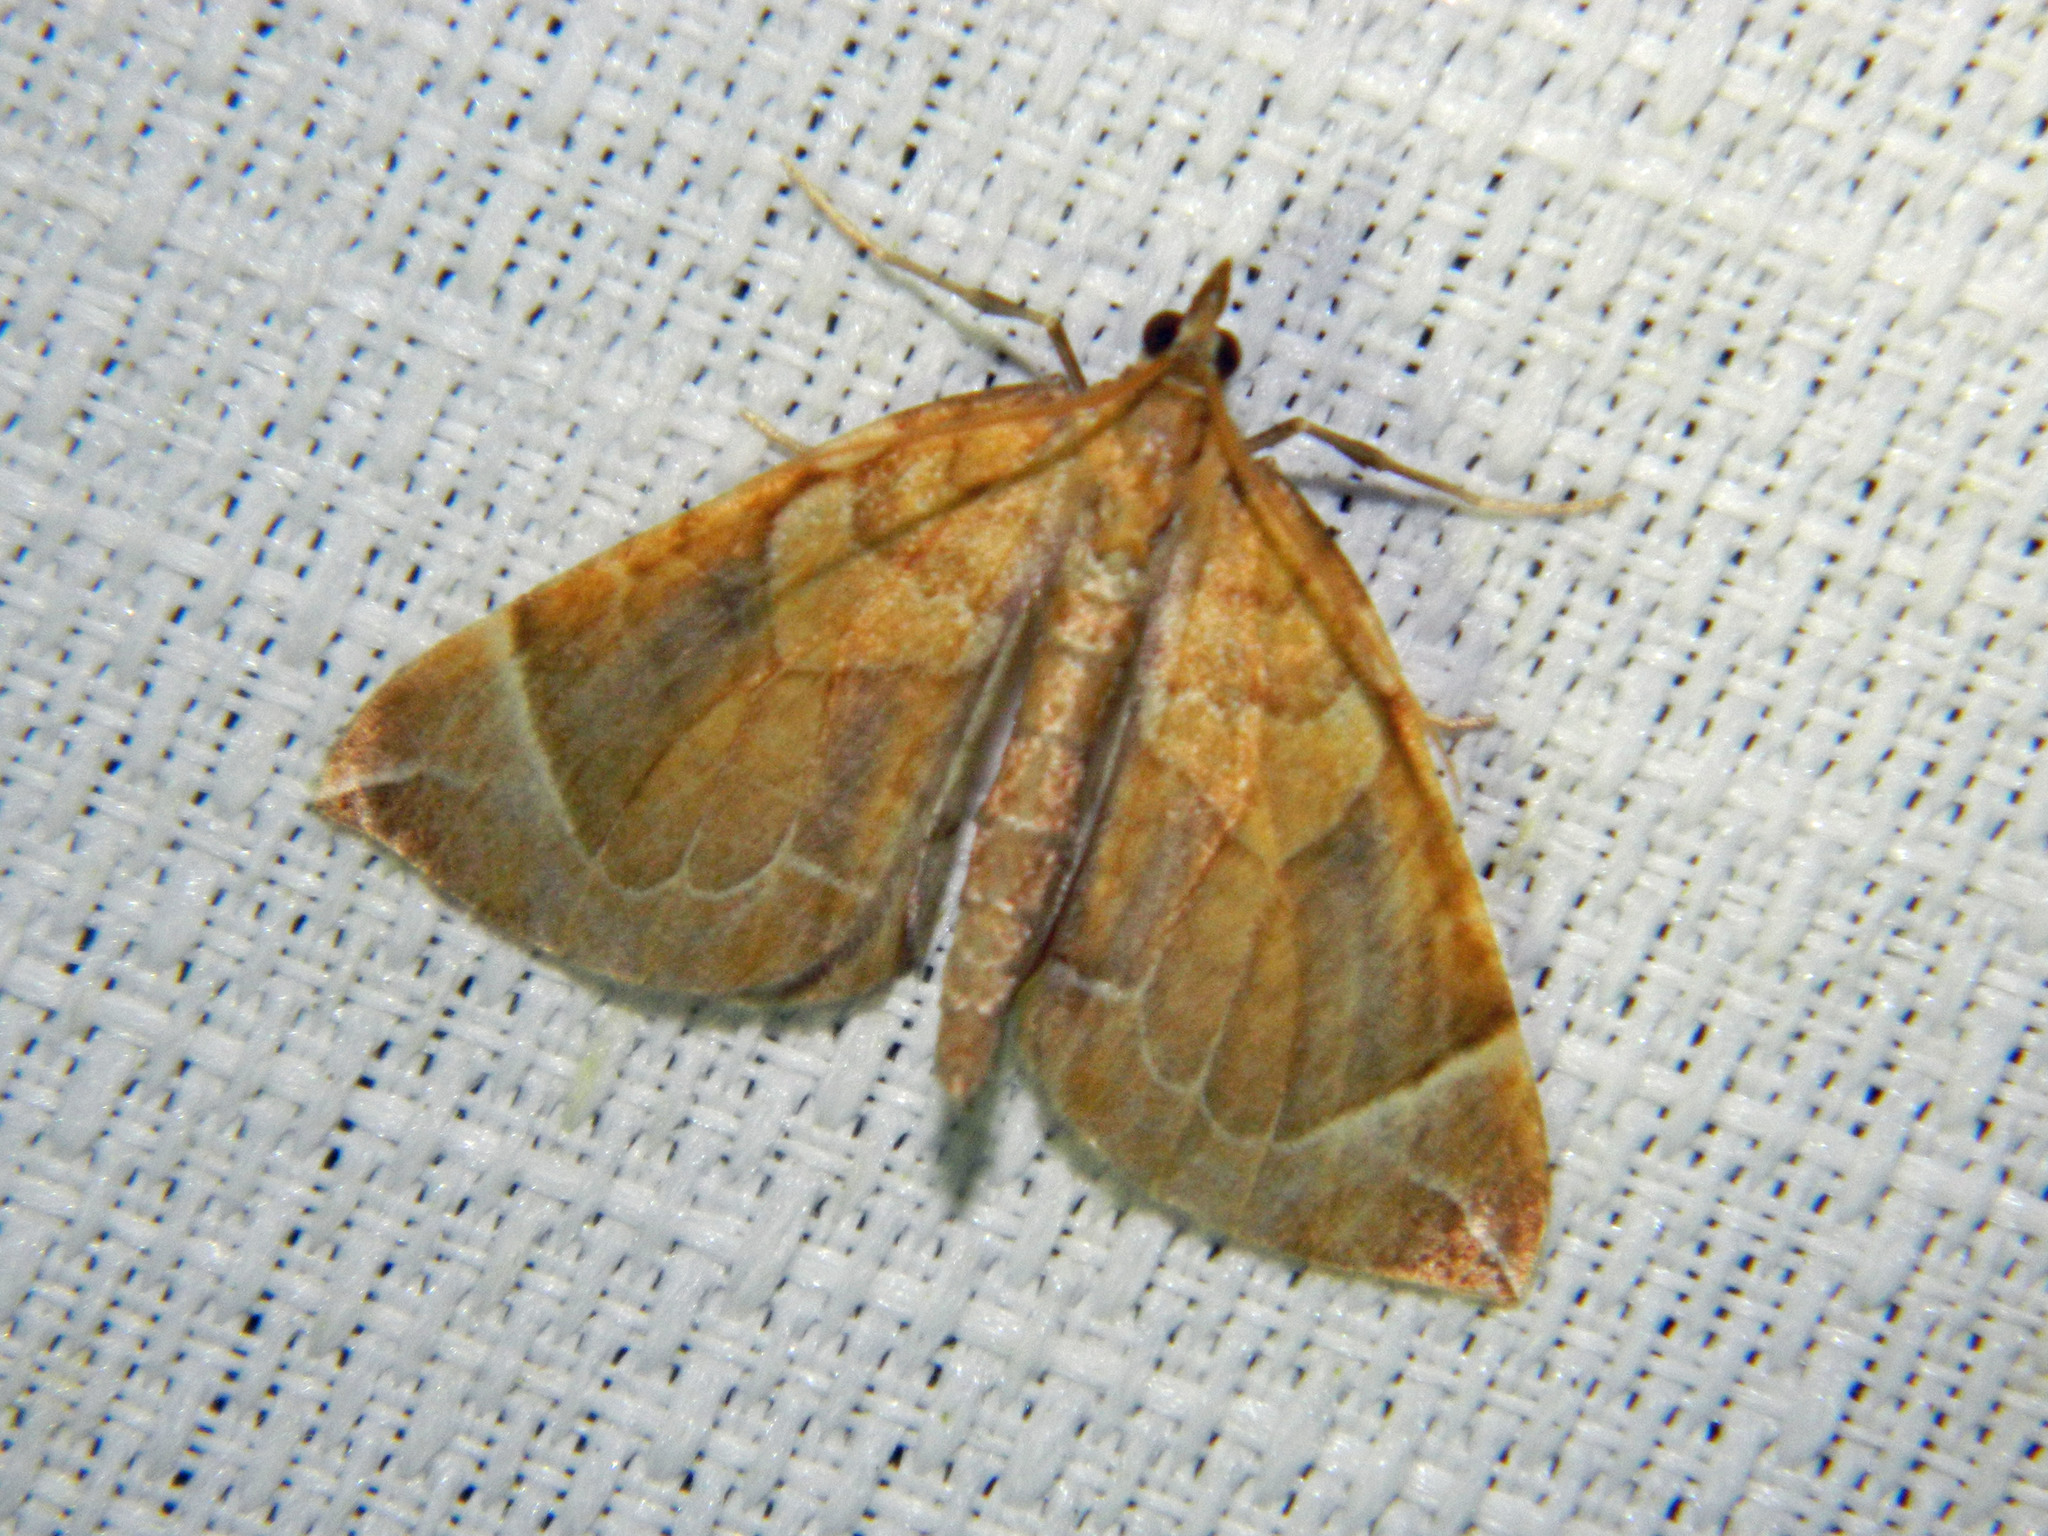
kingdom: Animalia
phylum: Arthropoda
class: Insecta
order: Lepidoptera
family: Geometridae
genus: Eulithis
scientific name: Eulithis testata
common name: Chevron
